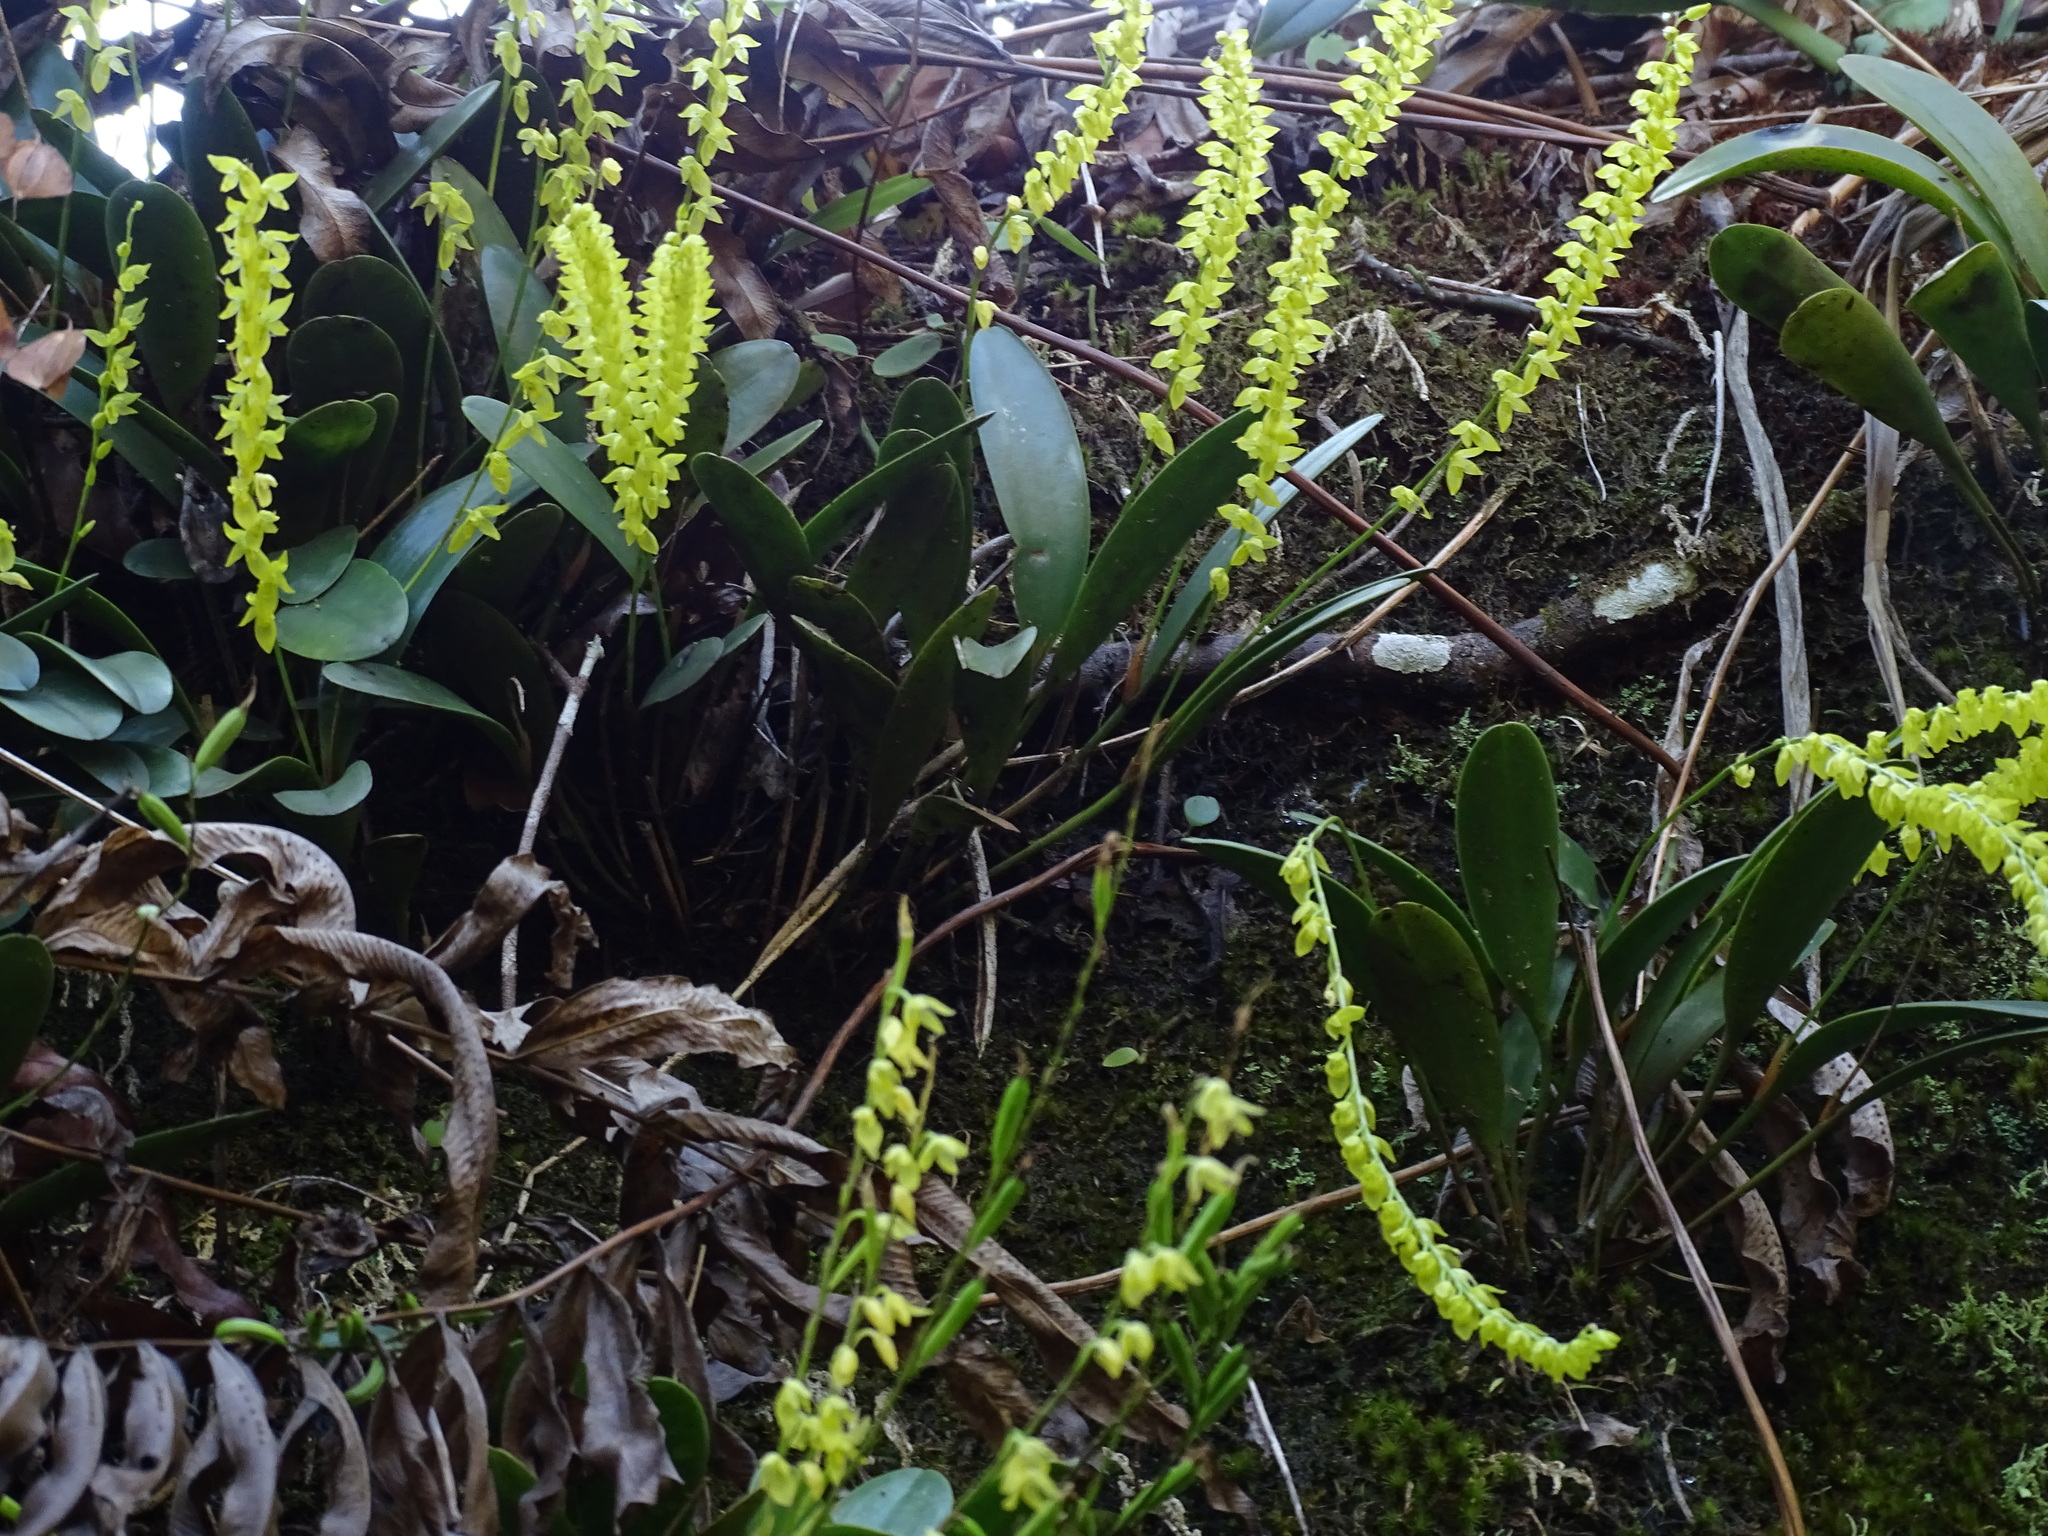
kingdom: Plantae
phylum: Tracheophyta
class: Liliopsida
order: Asparagales
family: Orchidaceae
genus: Pleurothallis
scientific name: Pleurothallis quadrifida
